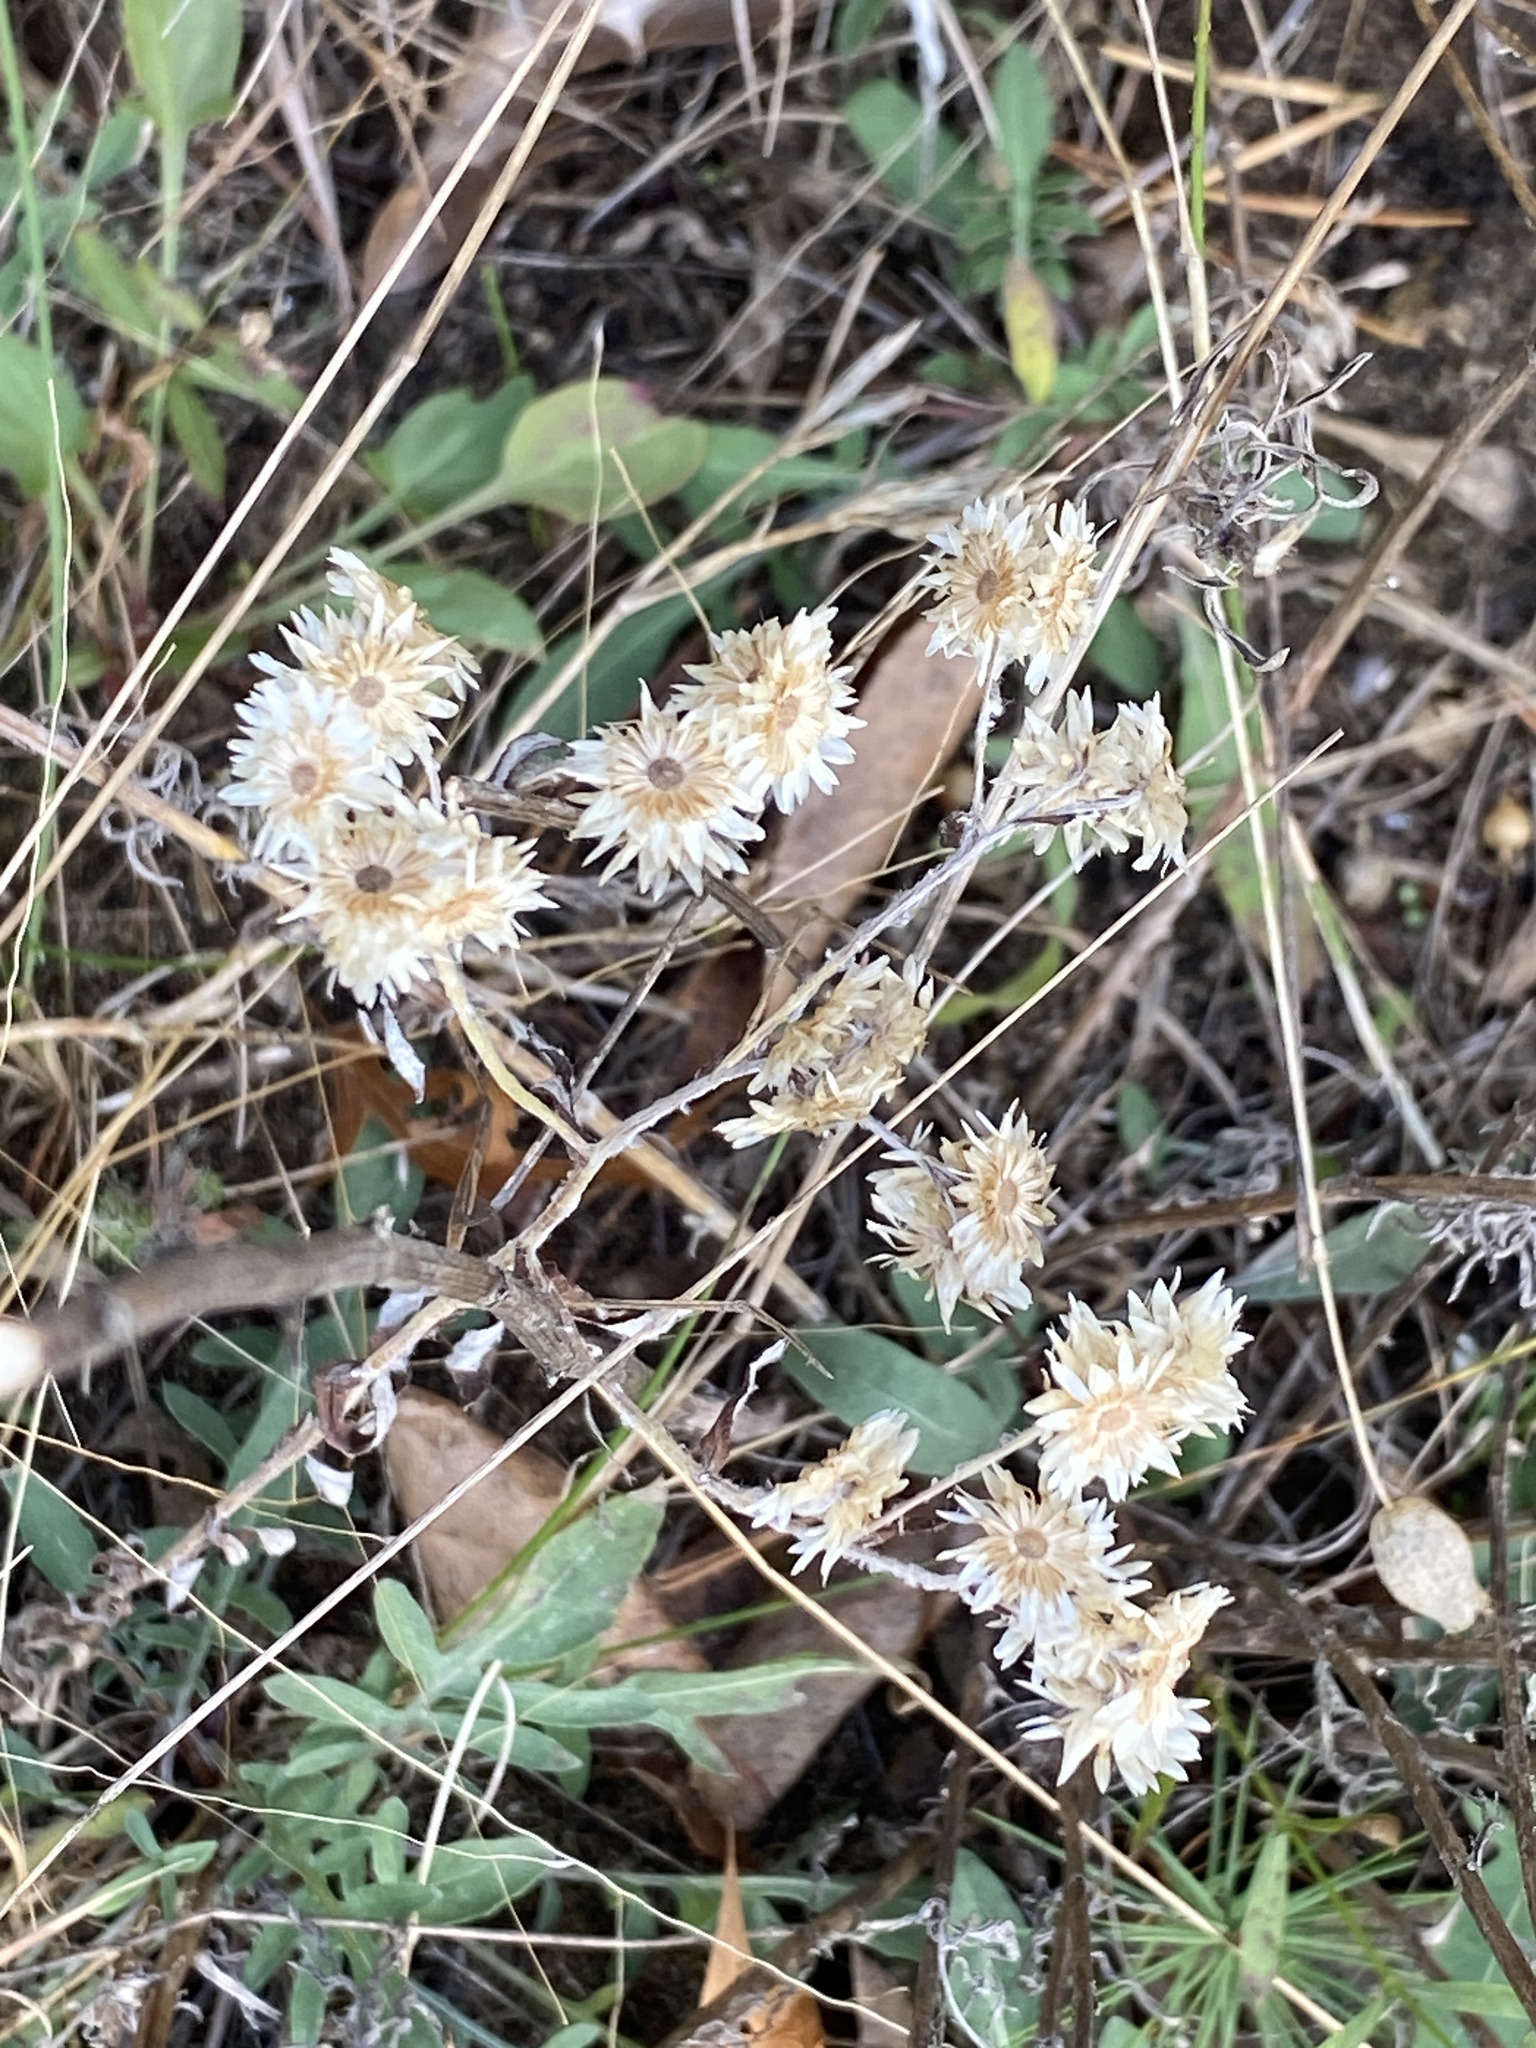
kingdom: Plantae
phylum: Tracheophyta
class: Magnoliopsida
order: Asterales
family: Asteraceae
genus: Pseudognaphalium
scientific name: Pseudognaphalium obtusifolium
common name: Eastern rabbit-tobacco
